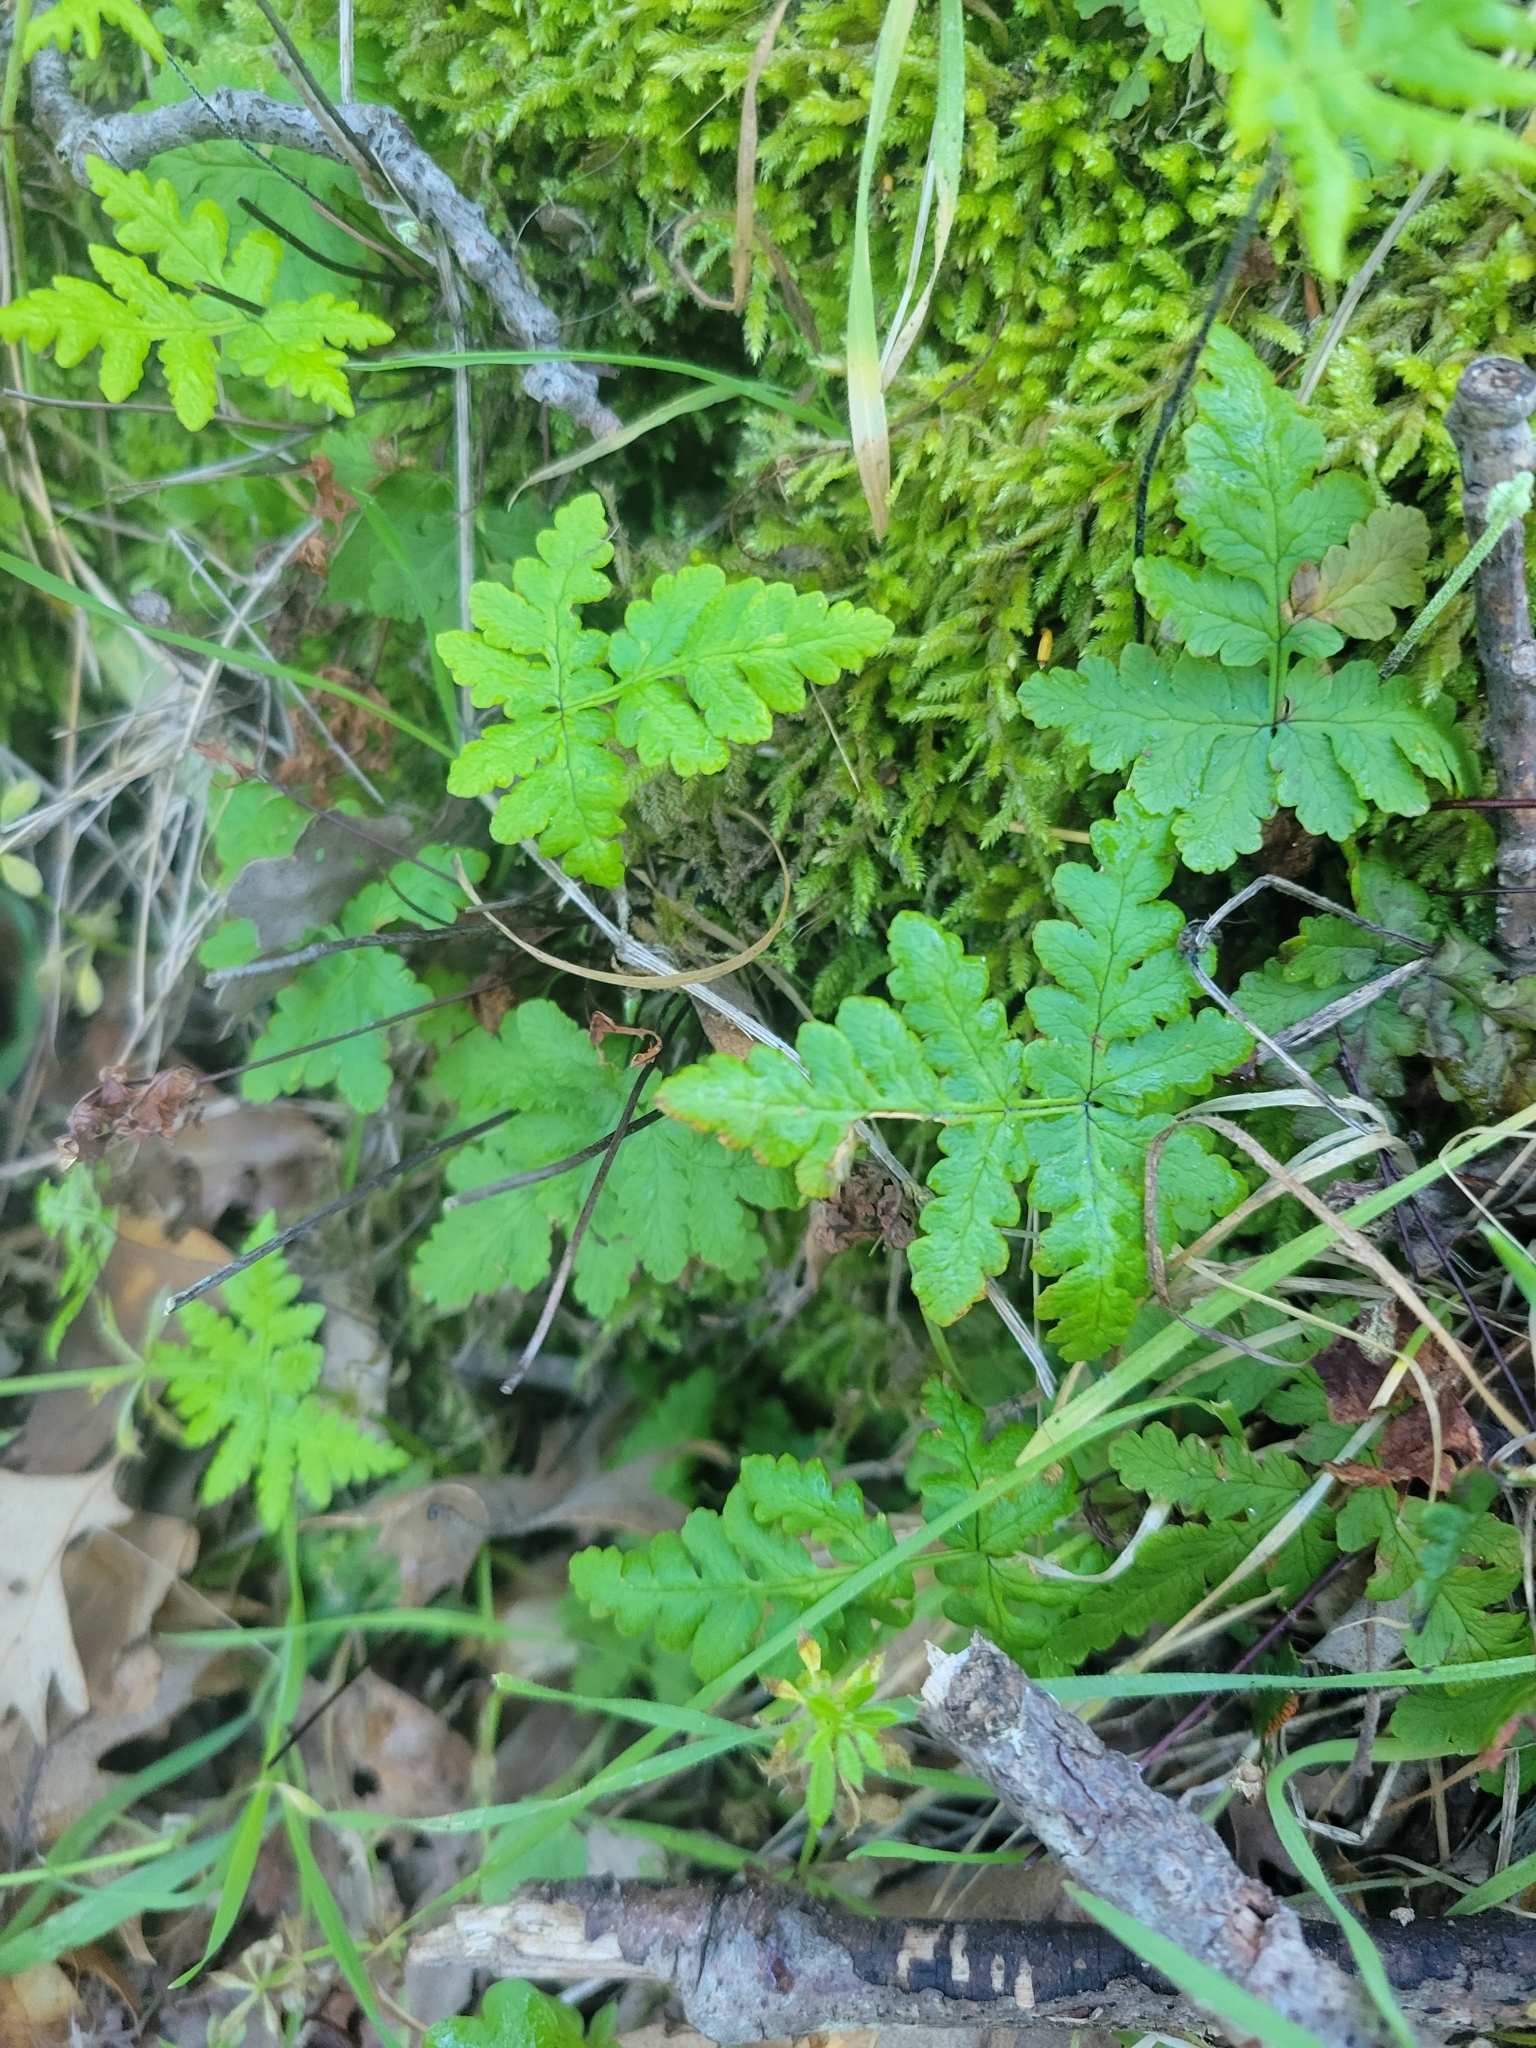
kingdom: Plantae
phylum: Tracheophyta
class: Polypodiopsida
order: Polypodiales
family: Pteridaceae
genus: Pentagramma
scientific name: Pentagramma triangularis
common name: Gold fern
